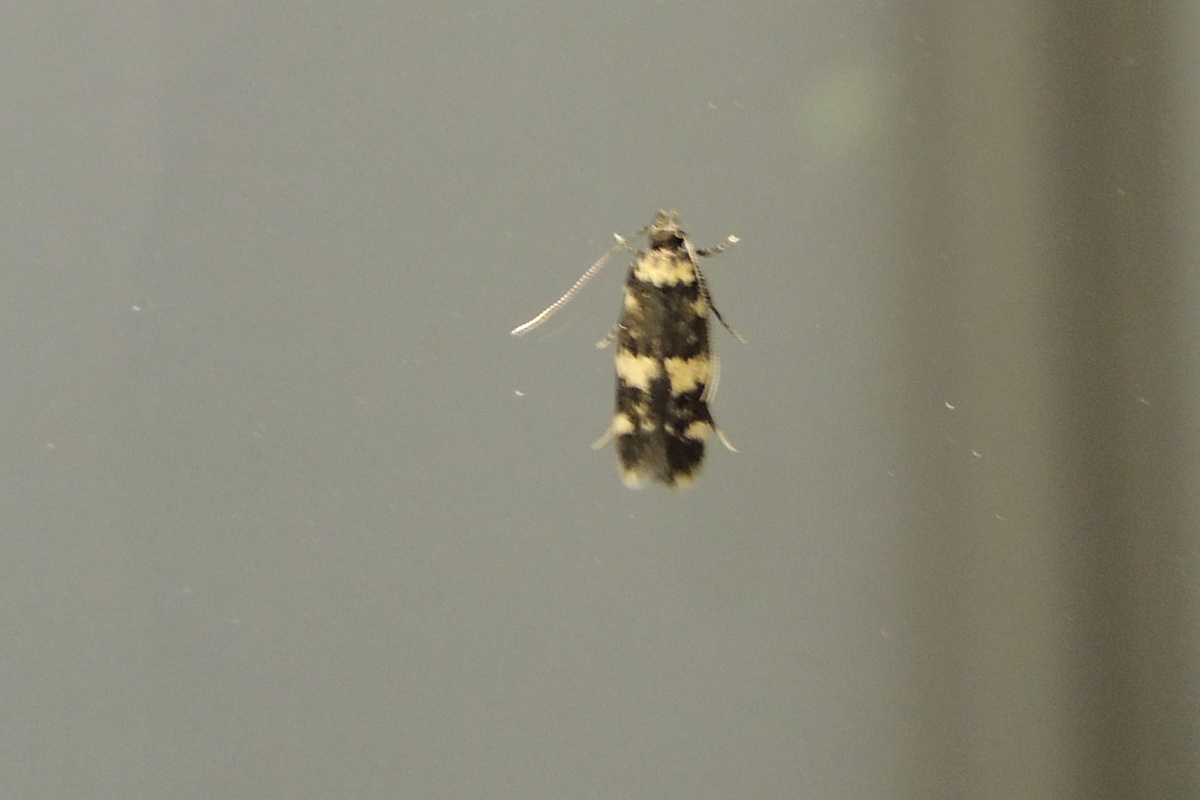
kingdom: Animalia
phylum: Arthropoda
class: Insecta
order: Lepidoptera
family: Autostichidae
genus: Oegoconia
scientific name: Oegoconia quadripuncta
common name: Four-spotted obscure
